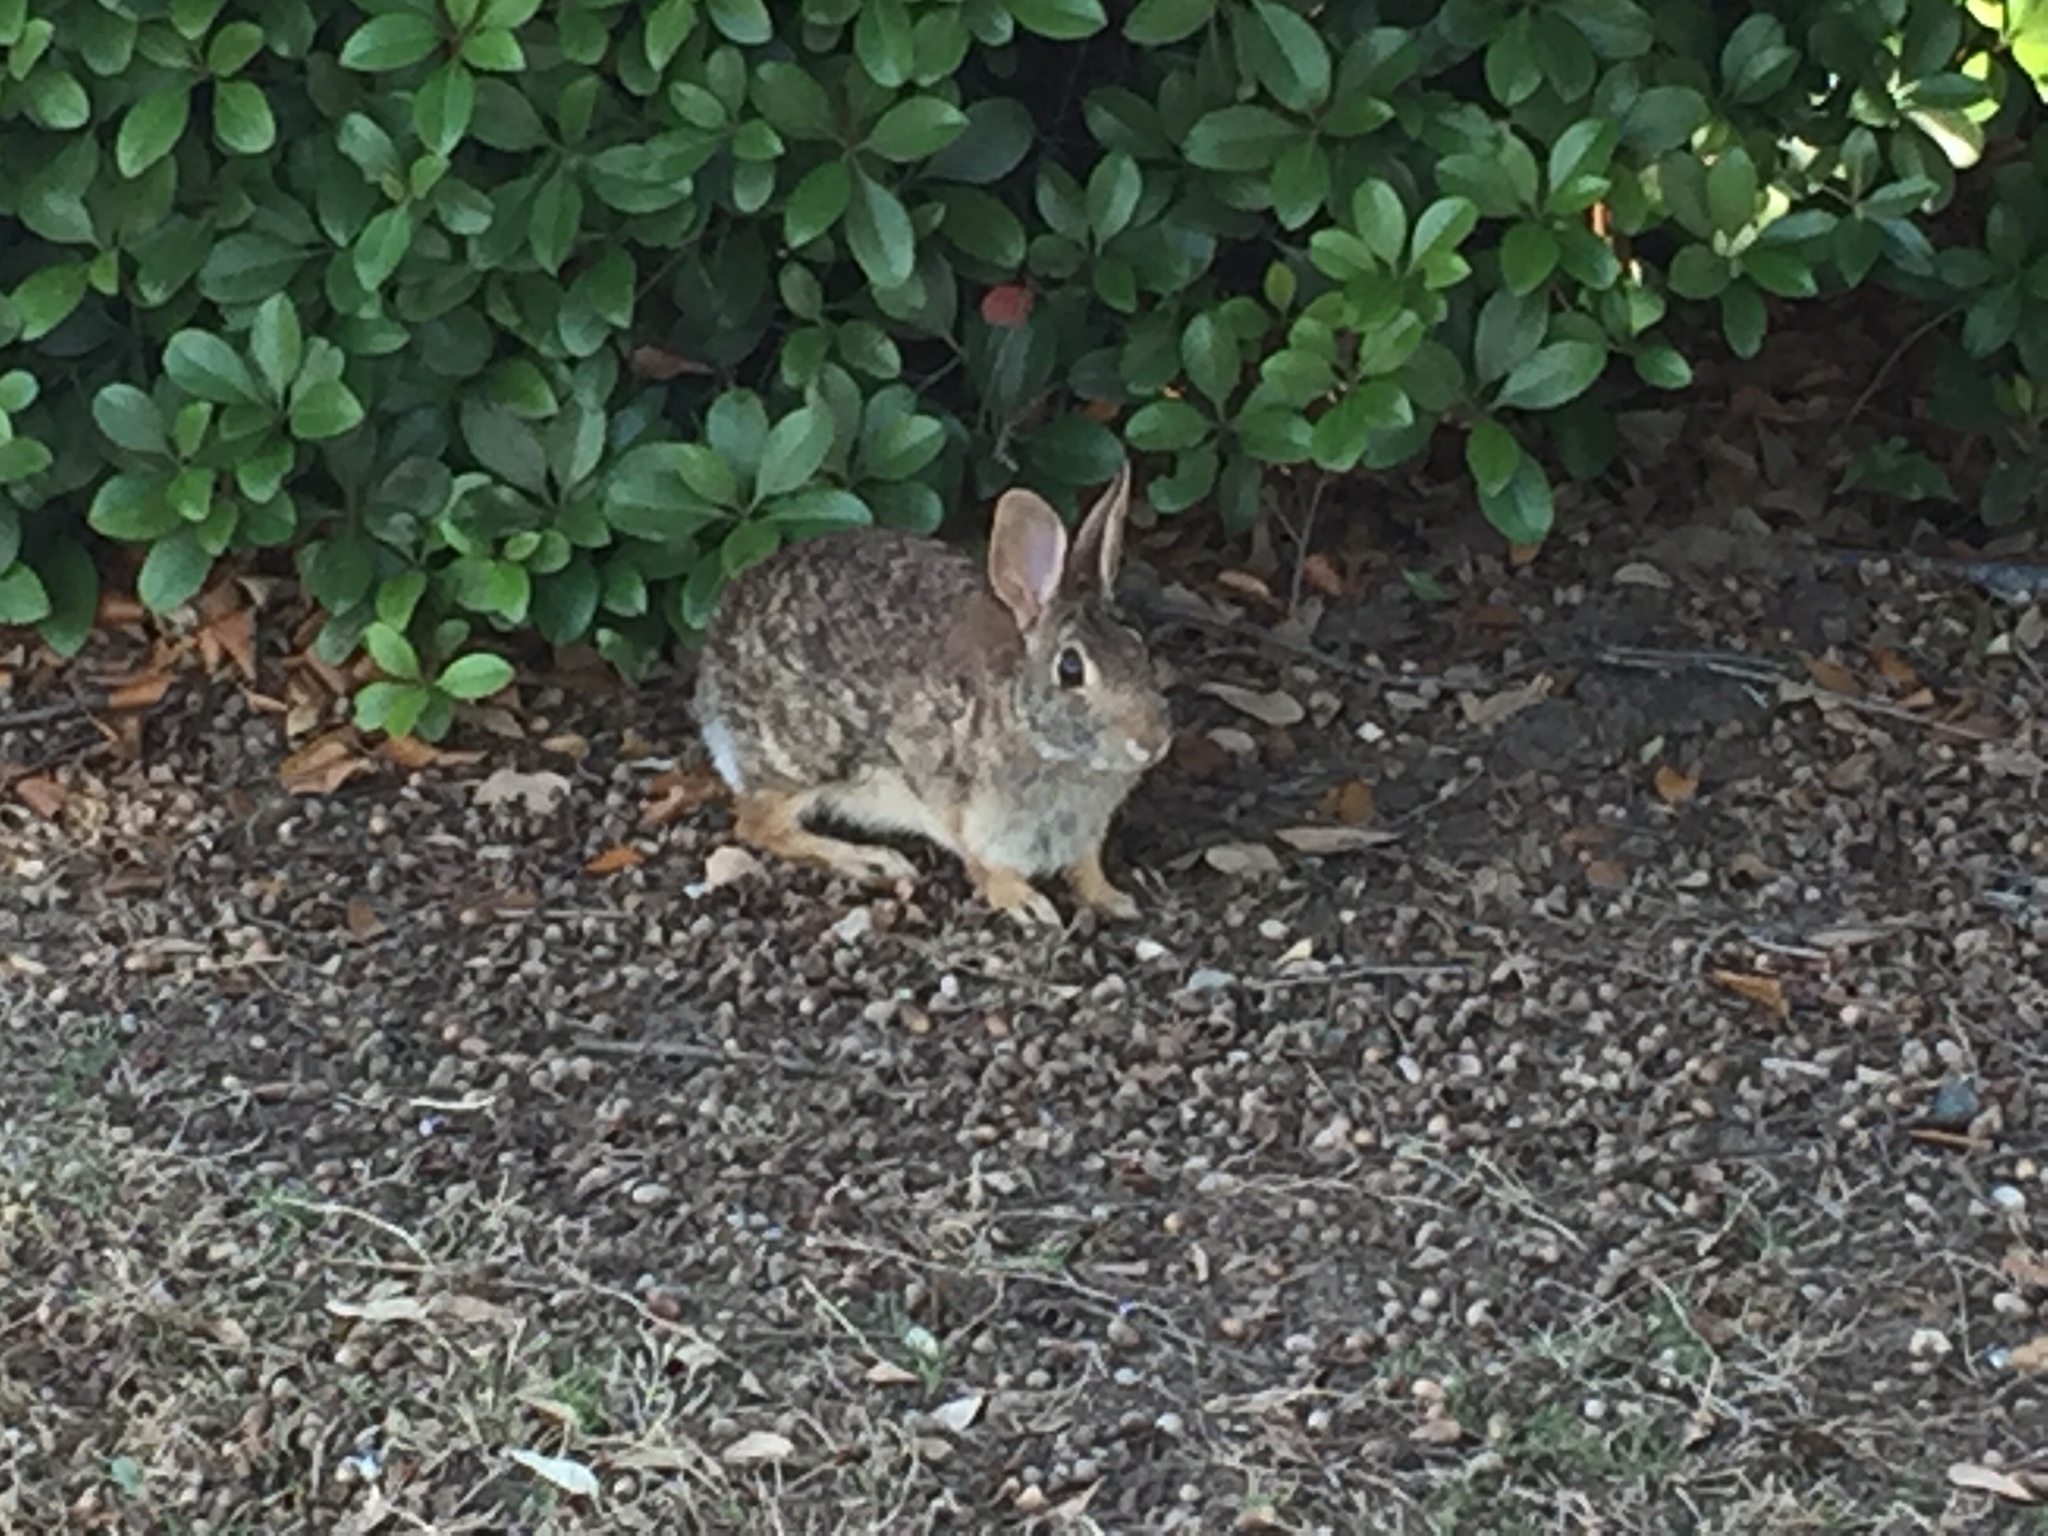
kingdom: Animalia
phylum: Chordata
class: Mammalia
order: Lagomorpha
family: Leporidae
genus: Sylvilagus
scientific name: Sylvilagus floridanus
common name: Eastern cottontail
